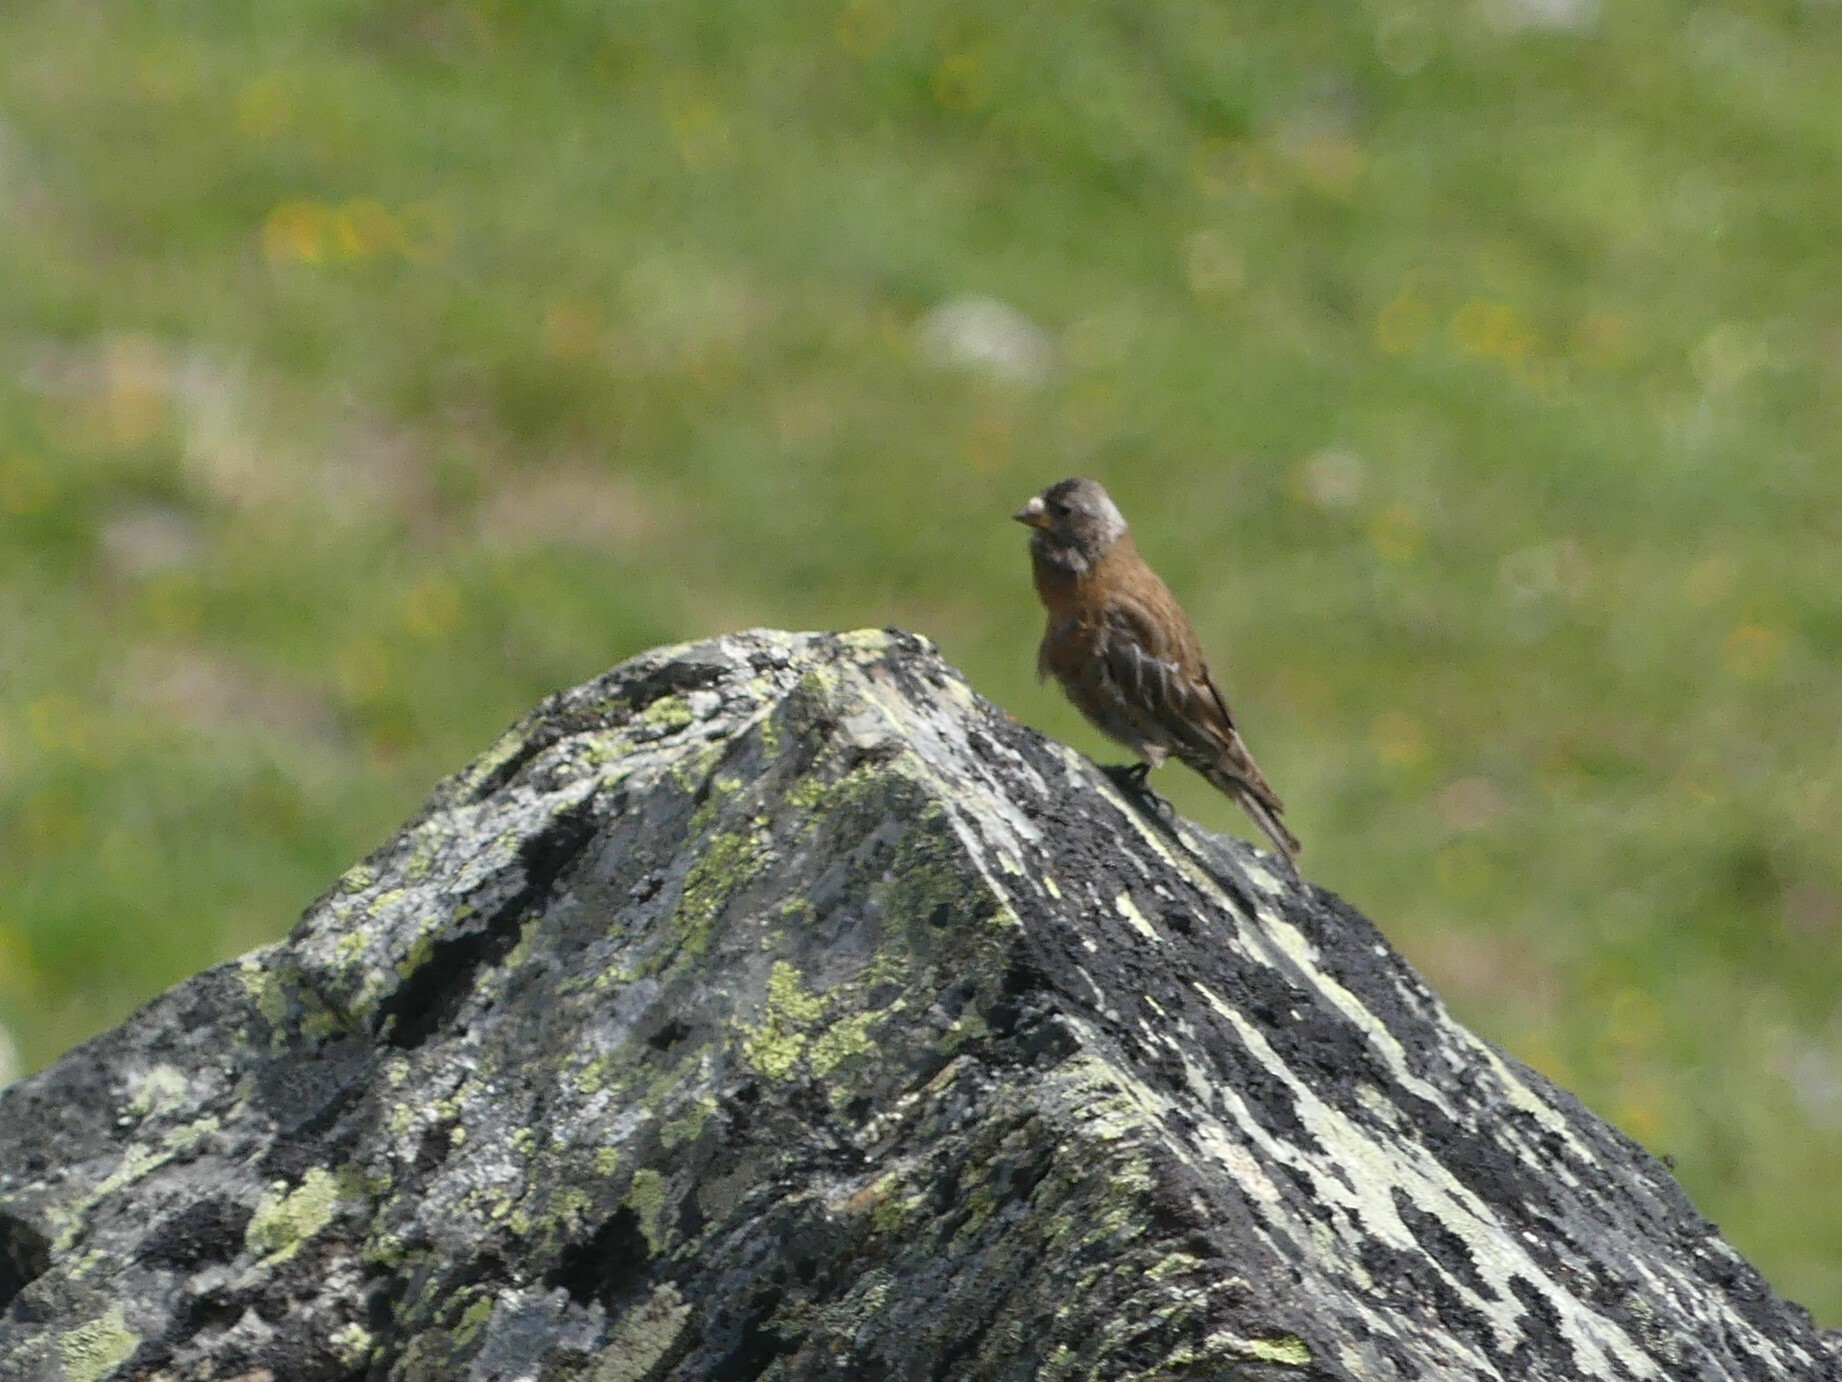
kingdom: Animalia
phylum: Chordata
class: Aves
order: Passeriformes
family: Fringillidae
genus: Leucosticte
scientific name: Leucosticte tephrocotis
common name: Gray-crowned rosy-finch
